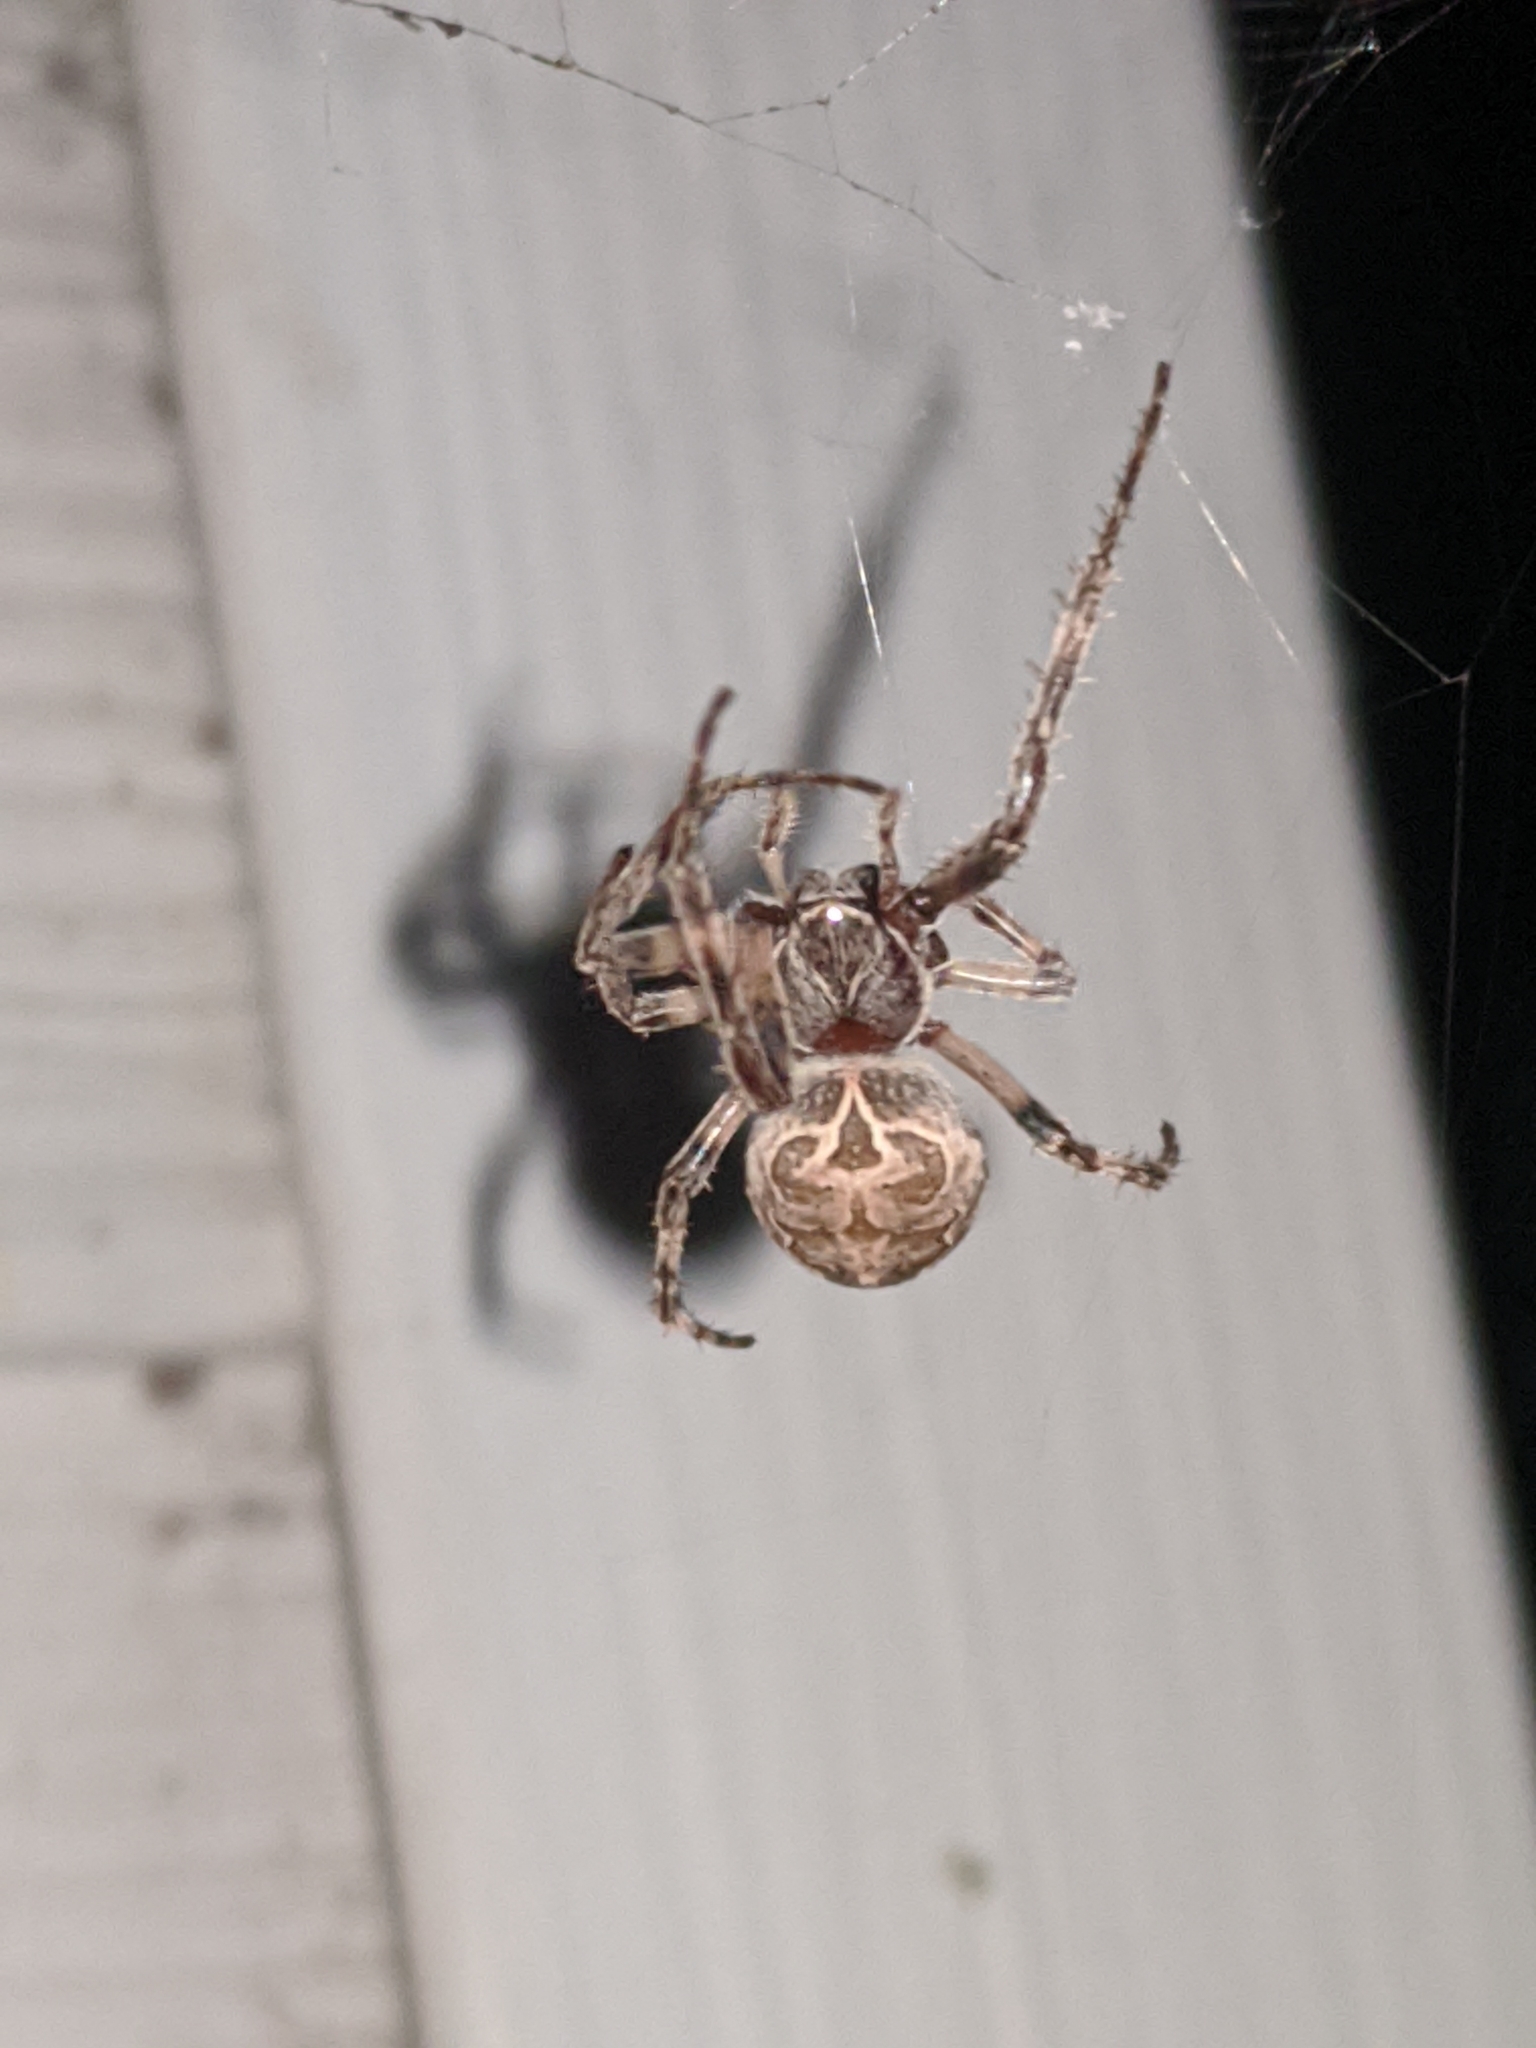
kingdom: Animalia
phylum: Arthropoda
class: Arachnida
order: Araneae
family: Araneidae
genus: Larinioides
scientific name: Larinioides sclopetarius
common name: Bridge orbweaver
